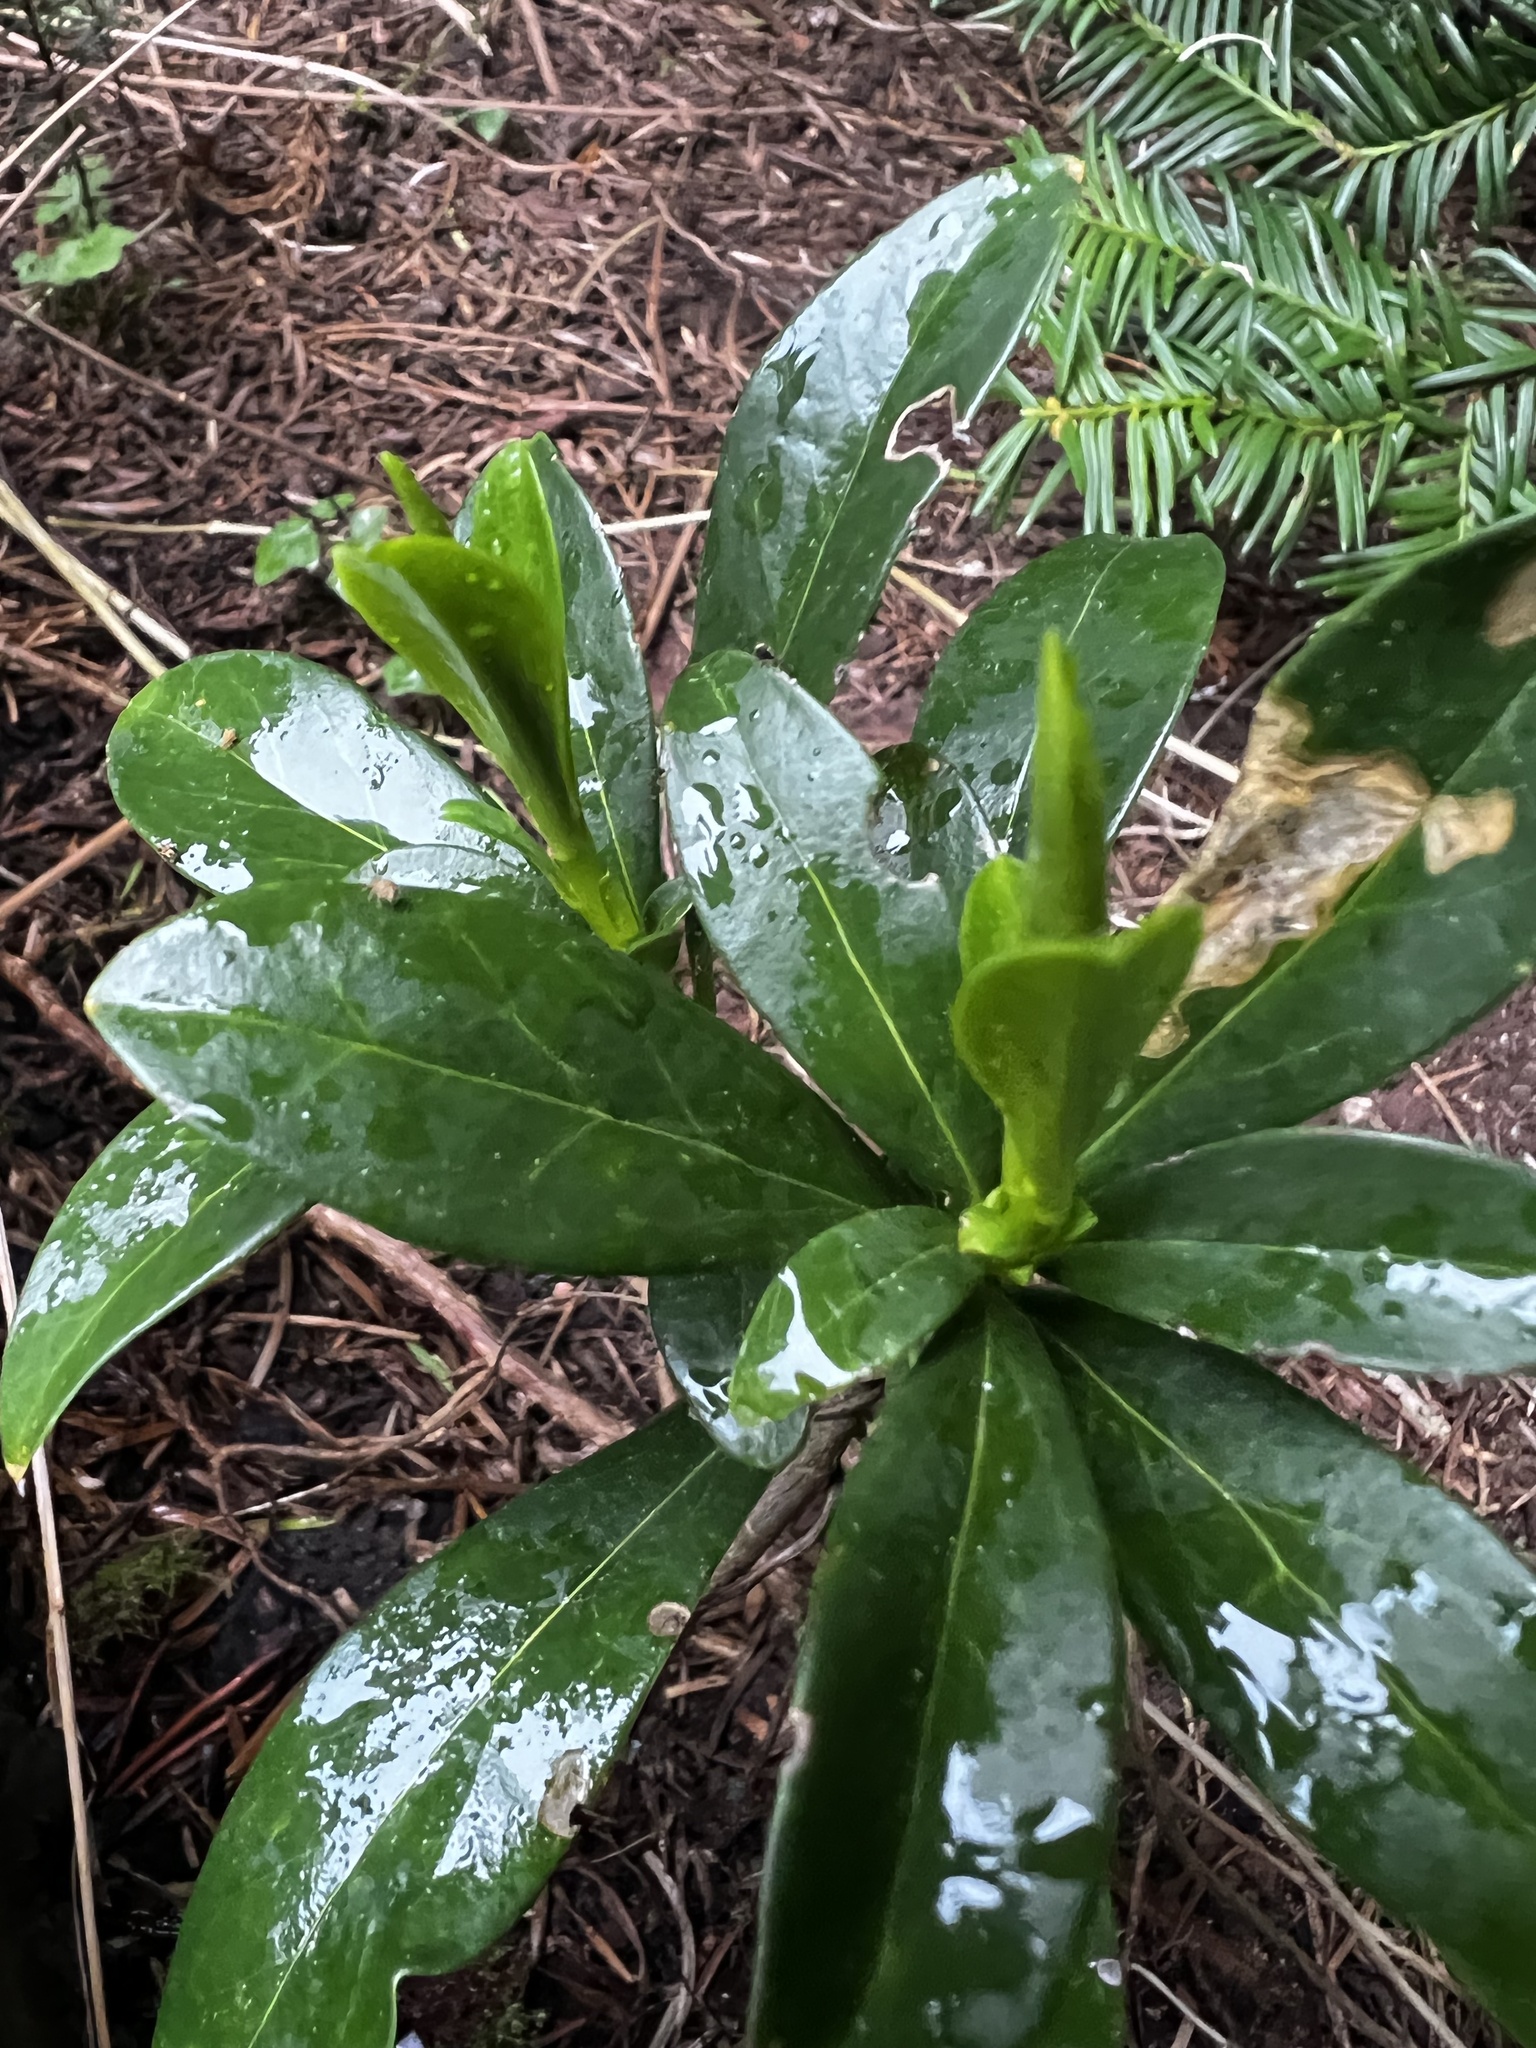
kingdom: Plantae
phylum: Tracheophyta
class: Magnoliopsida
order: Malvales
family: Thymelaeaceae
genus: Daphne
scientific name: Daphne laureola
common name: Spurge-laurel
